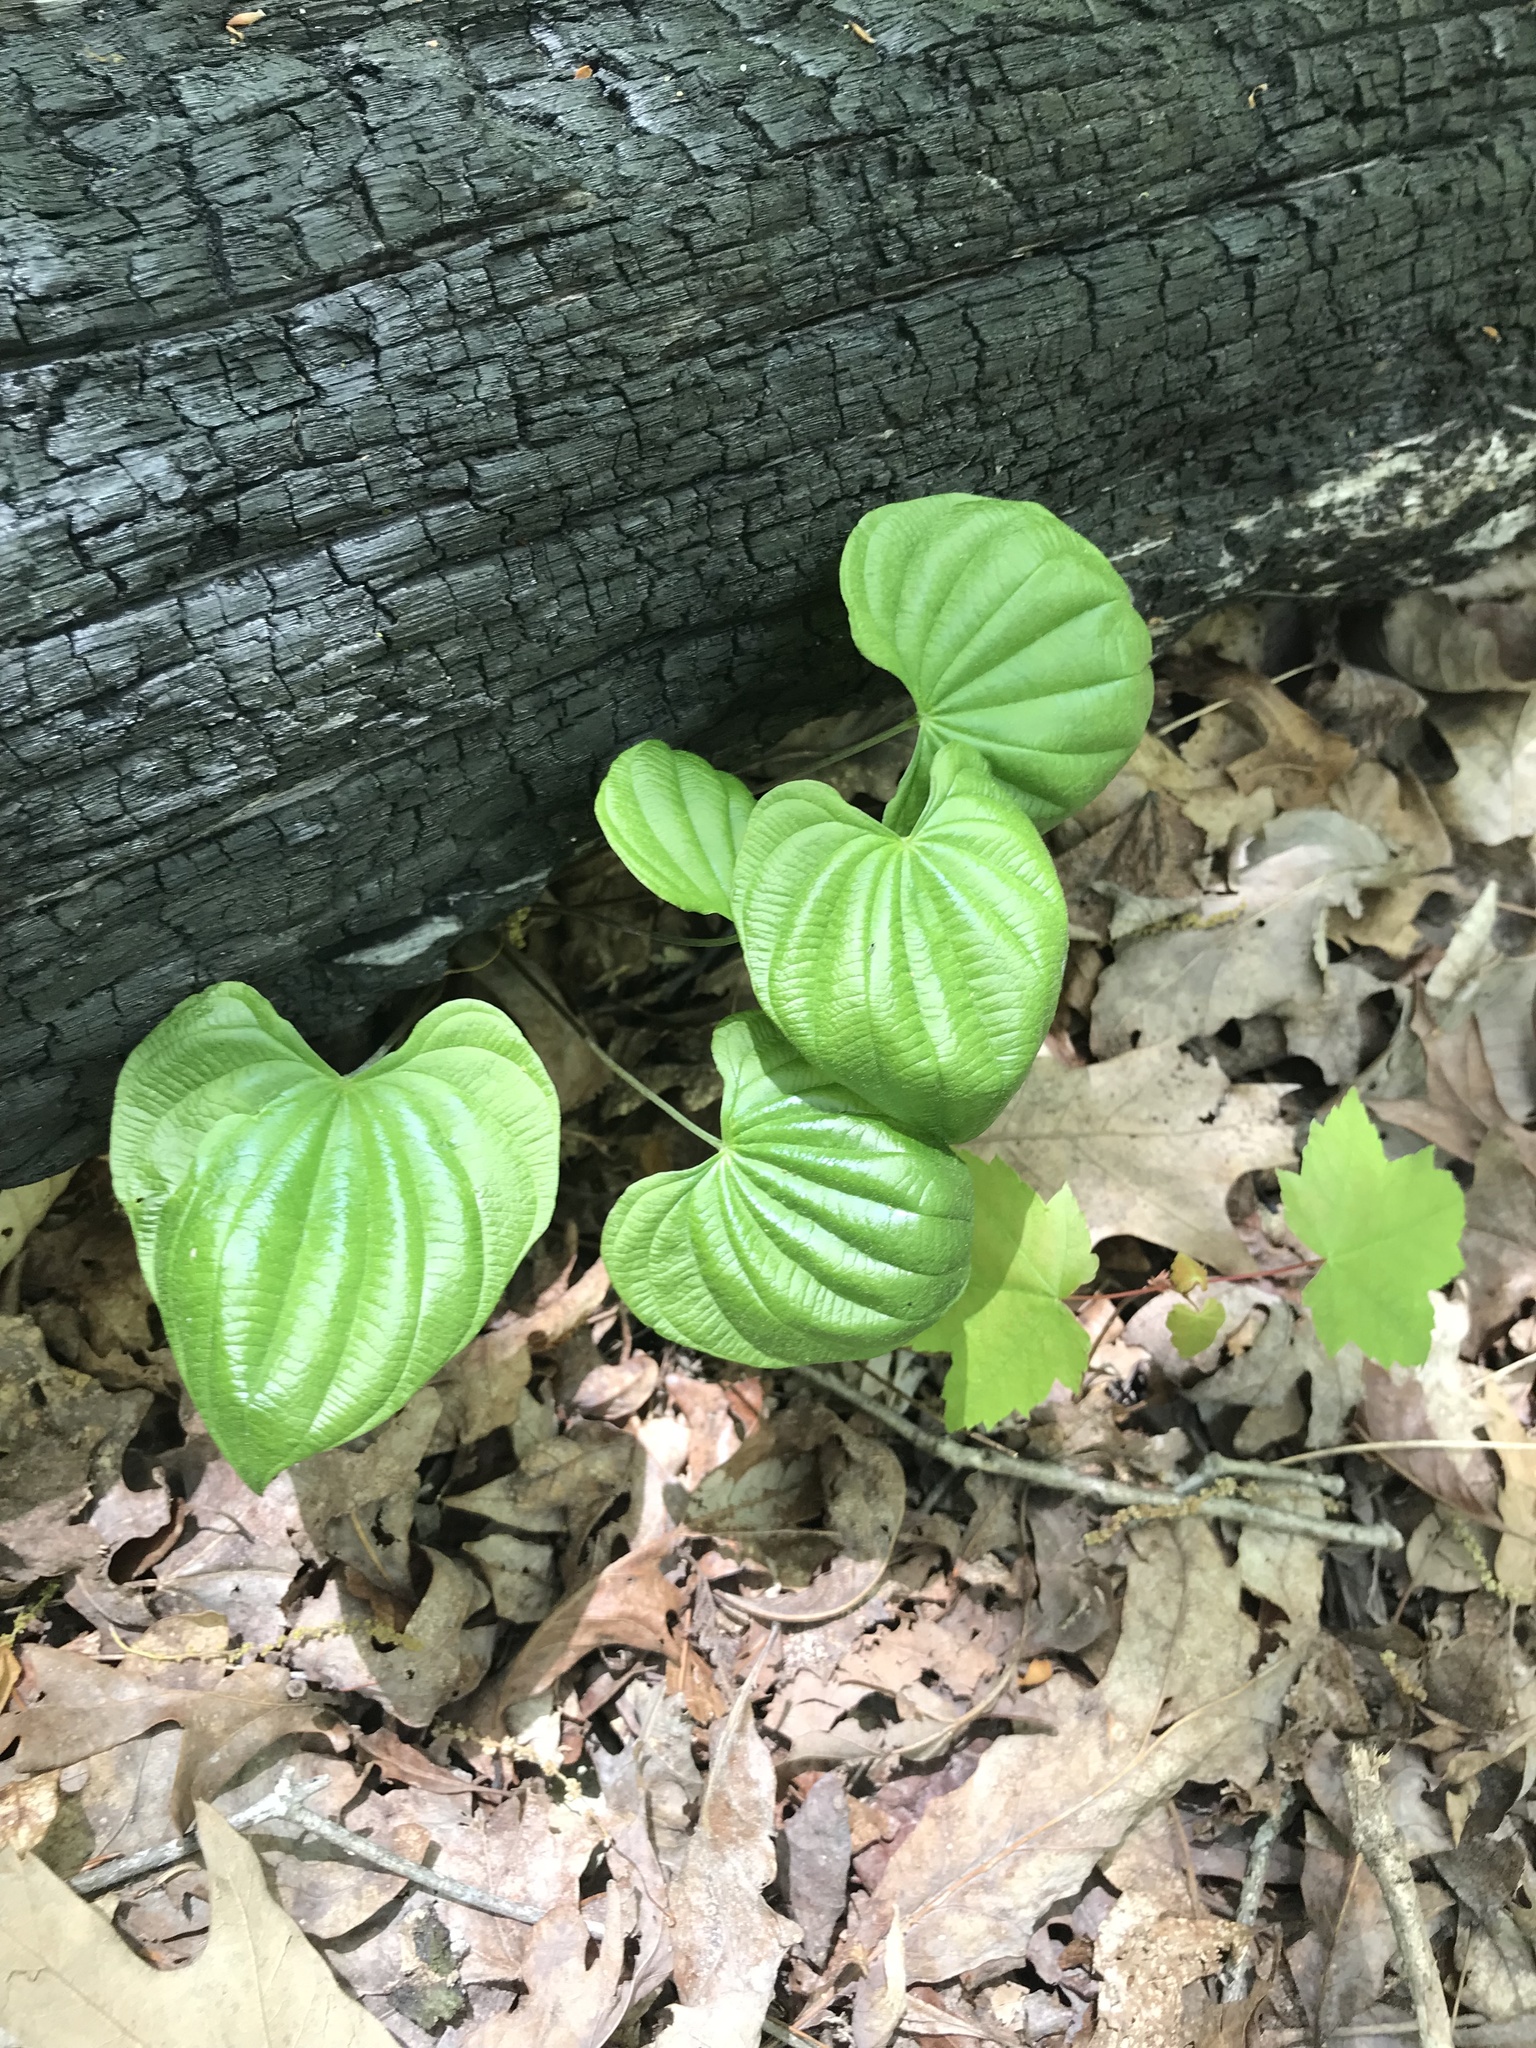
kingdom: Plantae
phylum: Tracheophyta
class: Liliopsida
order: Dioscoreales
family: Dioscoreaceae
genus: Dioscorea
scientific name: Dioscorea villosa
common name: Wild yam
